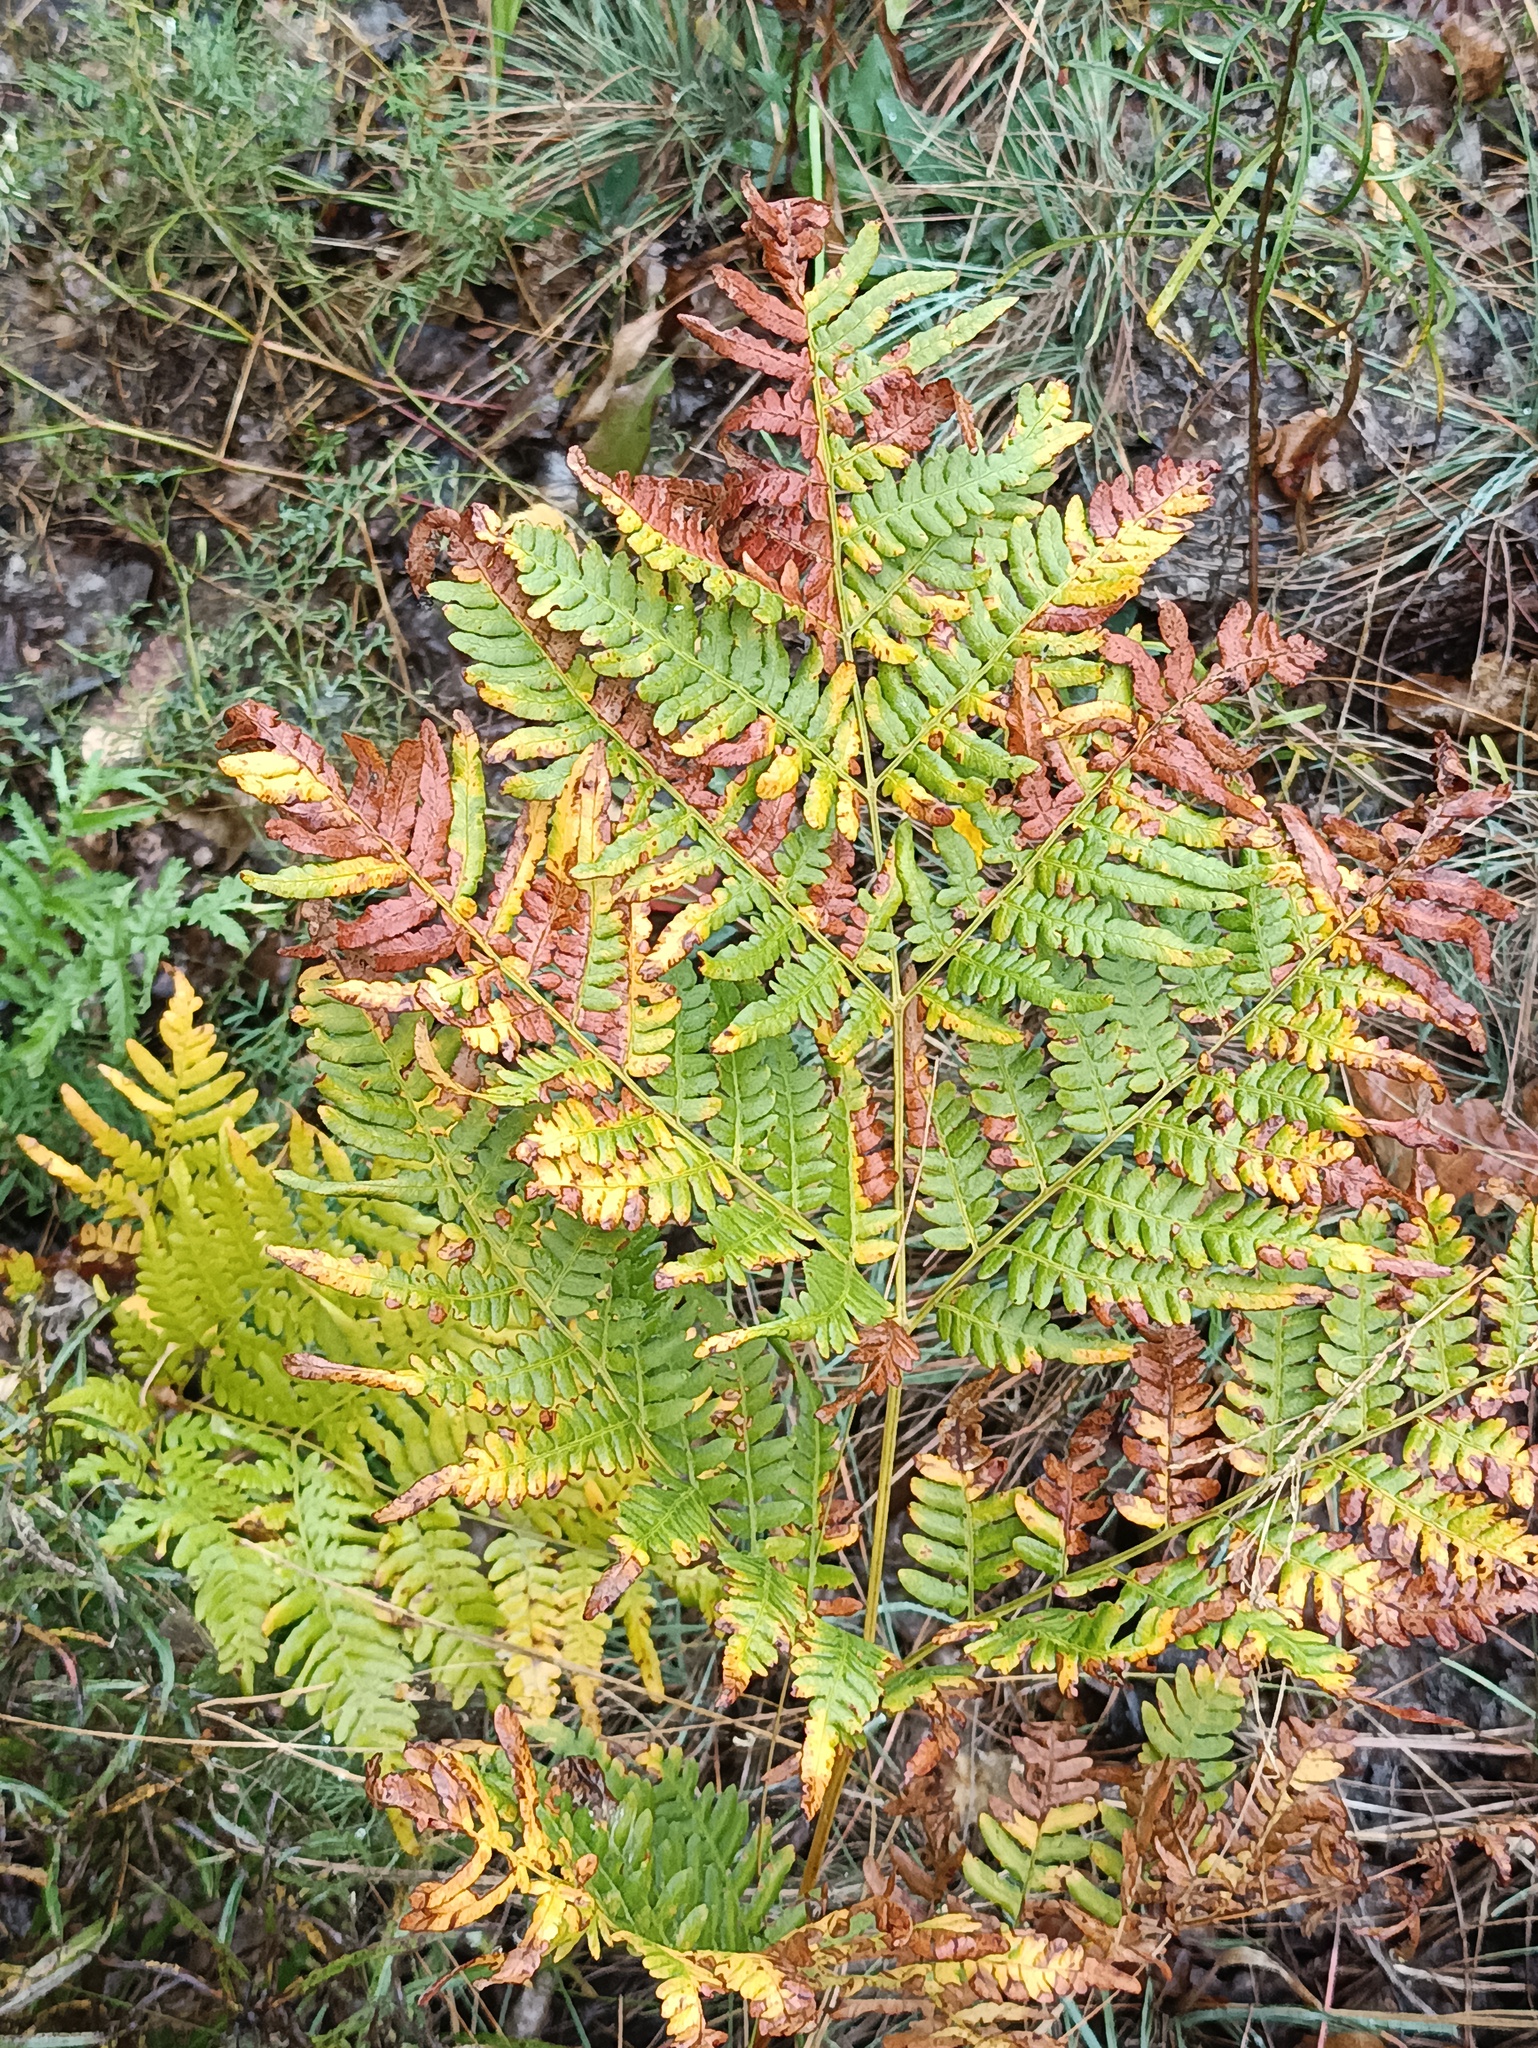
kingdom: Plantae
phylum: Tracheophyta
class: Polypodiopsida
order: Polypodiales
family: Dennstaedtiaceae
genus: Pteridium
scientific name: Pteridium aquilinum
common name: Bracken
